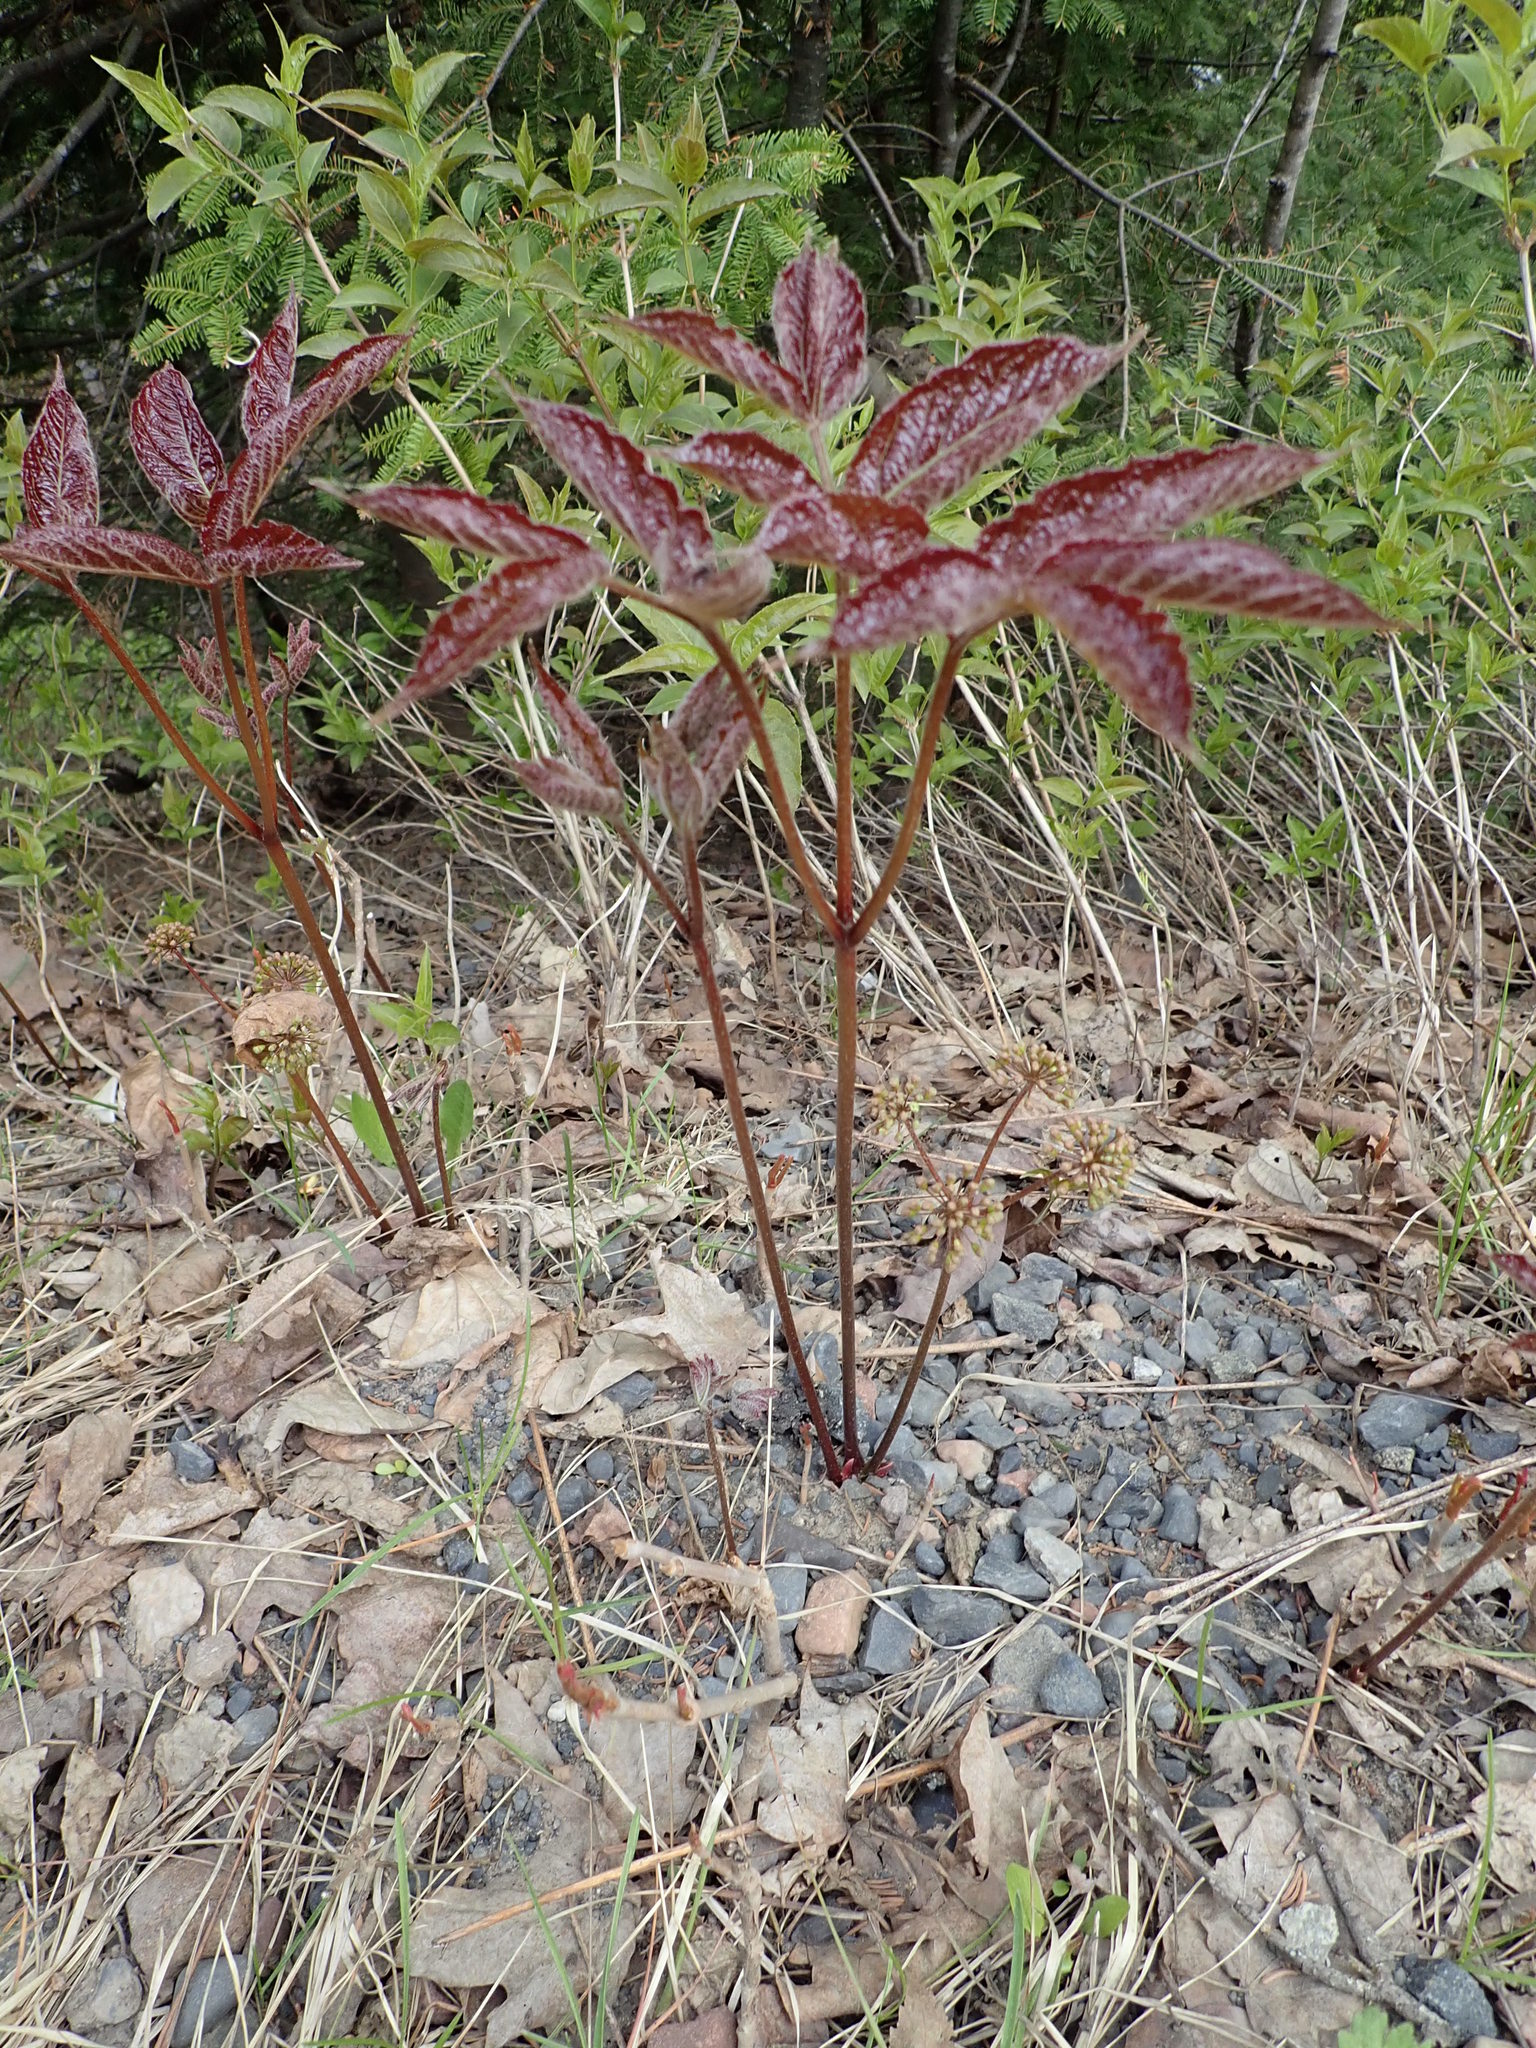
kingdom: Plantae
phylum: Tracheophyta
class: Magnoliopsida
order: Apiales
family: Araliaceae
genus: Aralia
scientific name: Aralia nudicaulis
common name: Wild sarsaparilla
